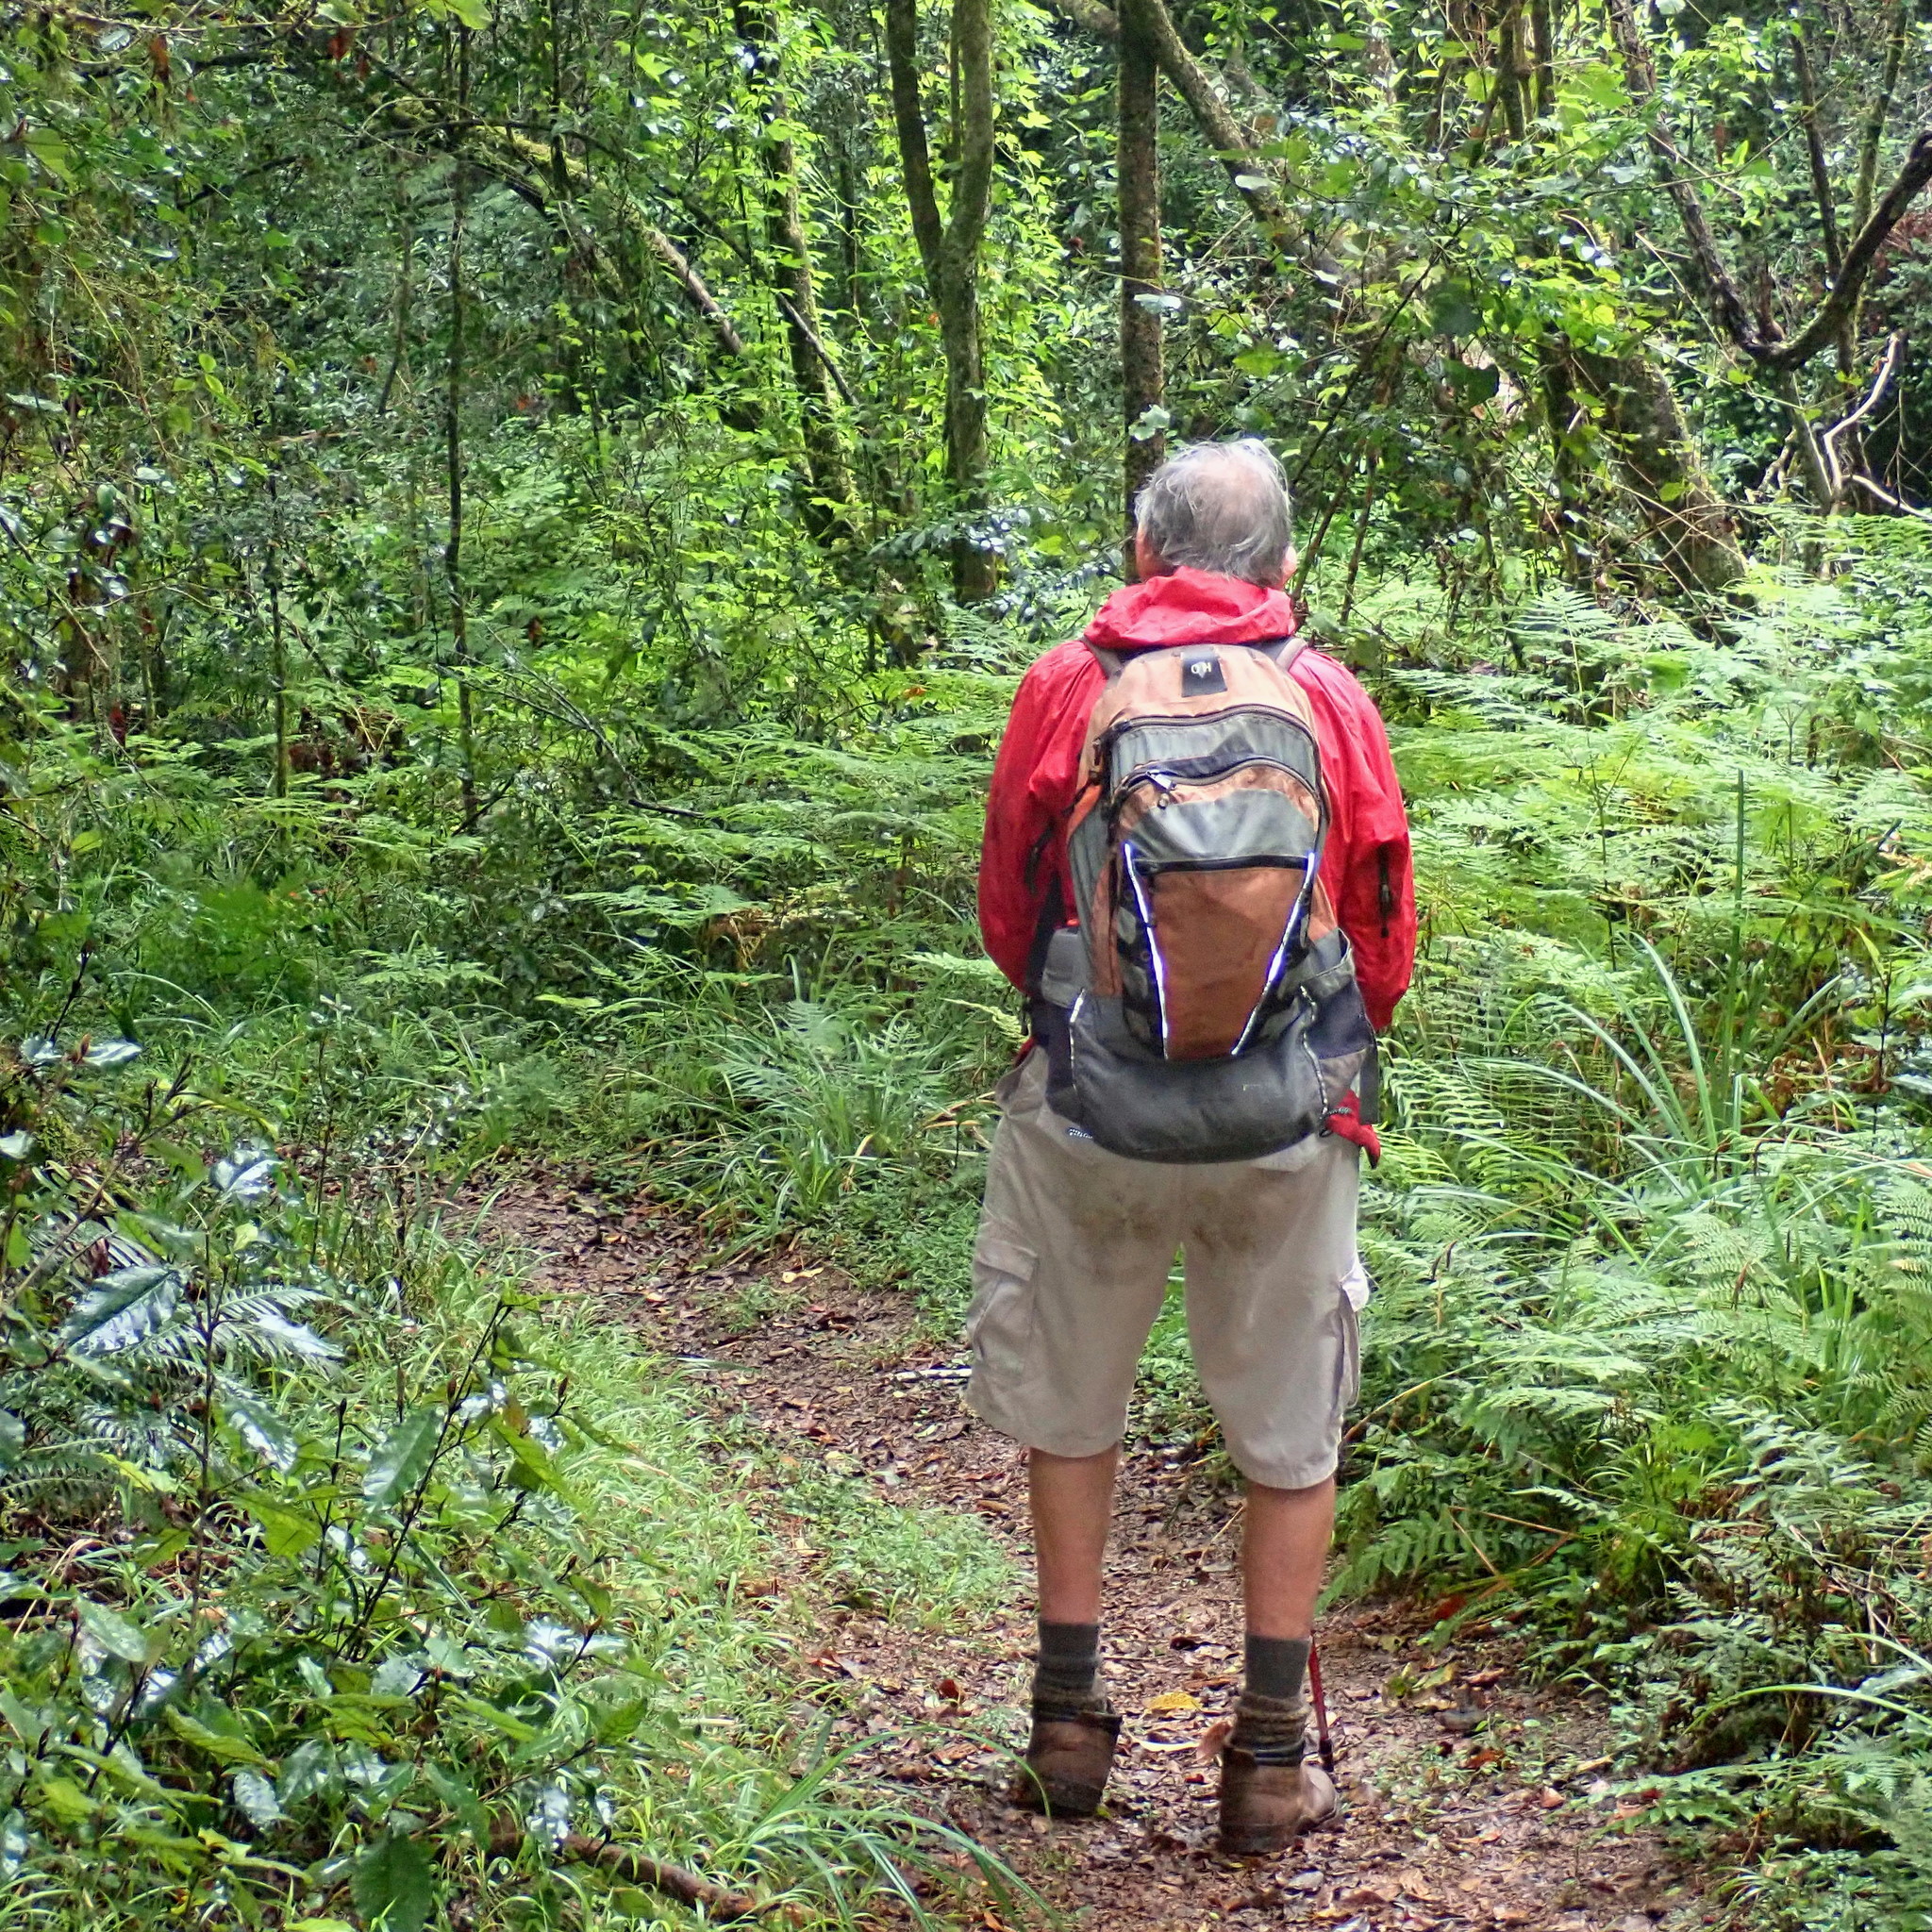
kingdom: Plantae
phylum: Tracheophyta
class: Polypodiopsida
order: Polypodiales
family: Dennstaedtiaceae
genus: Hypolepis
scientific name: Hypolepis sparsisora
